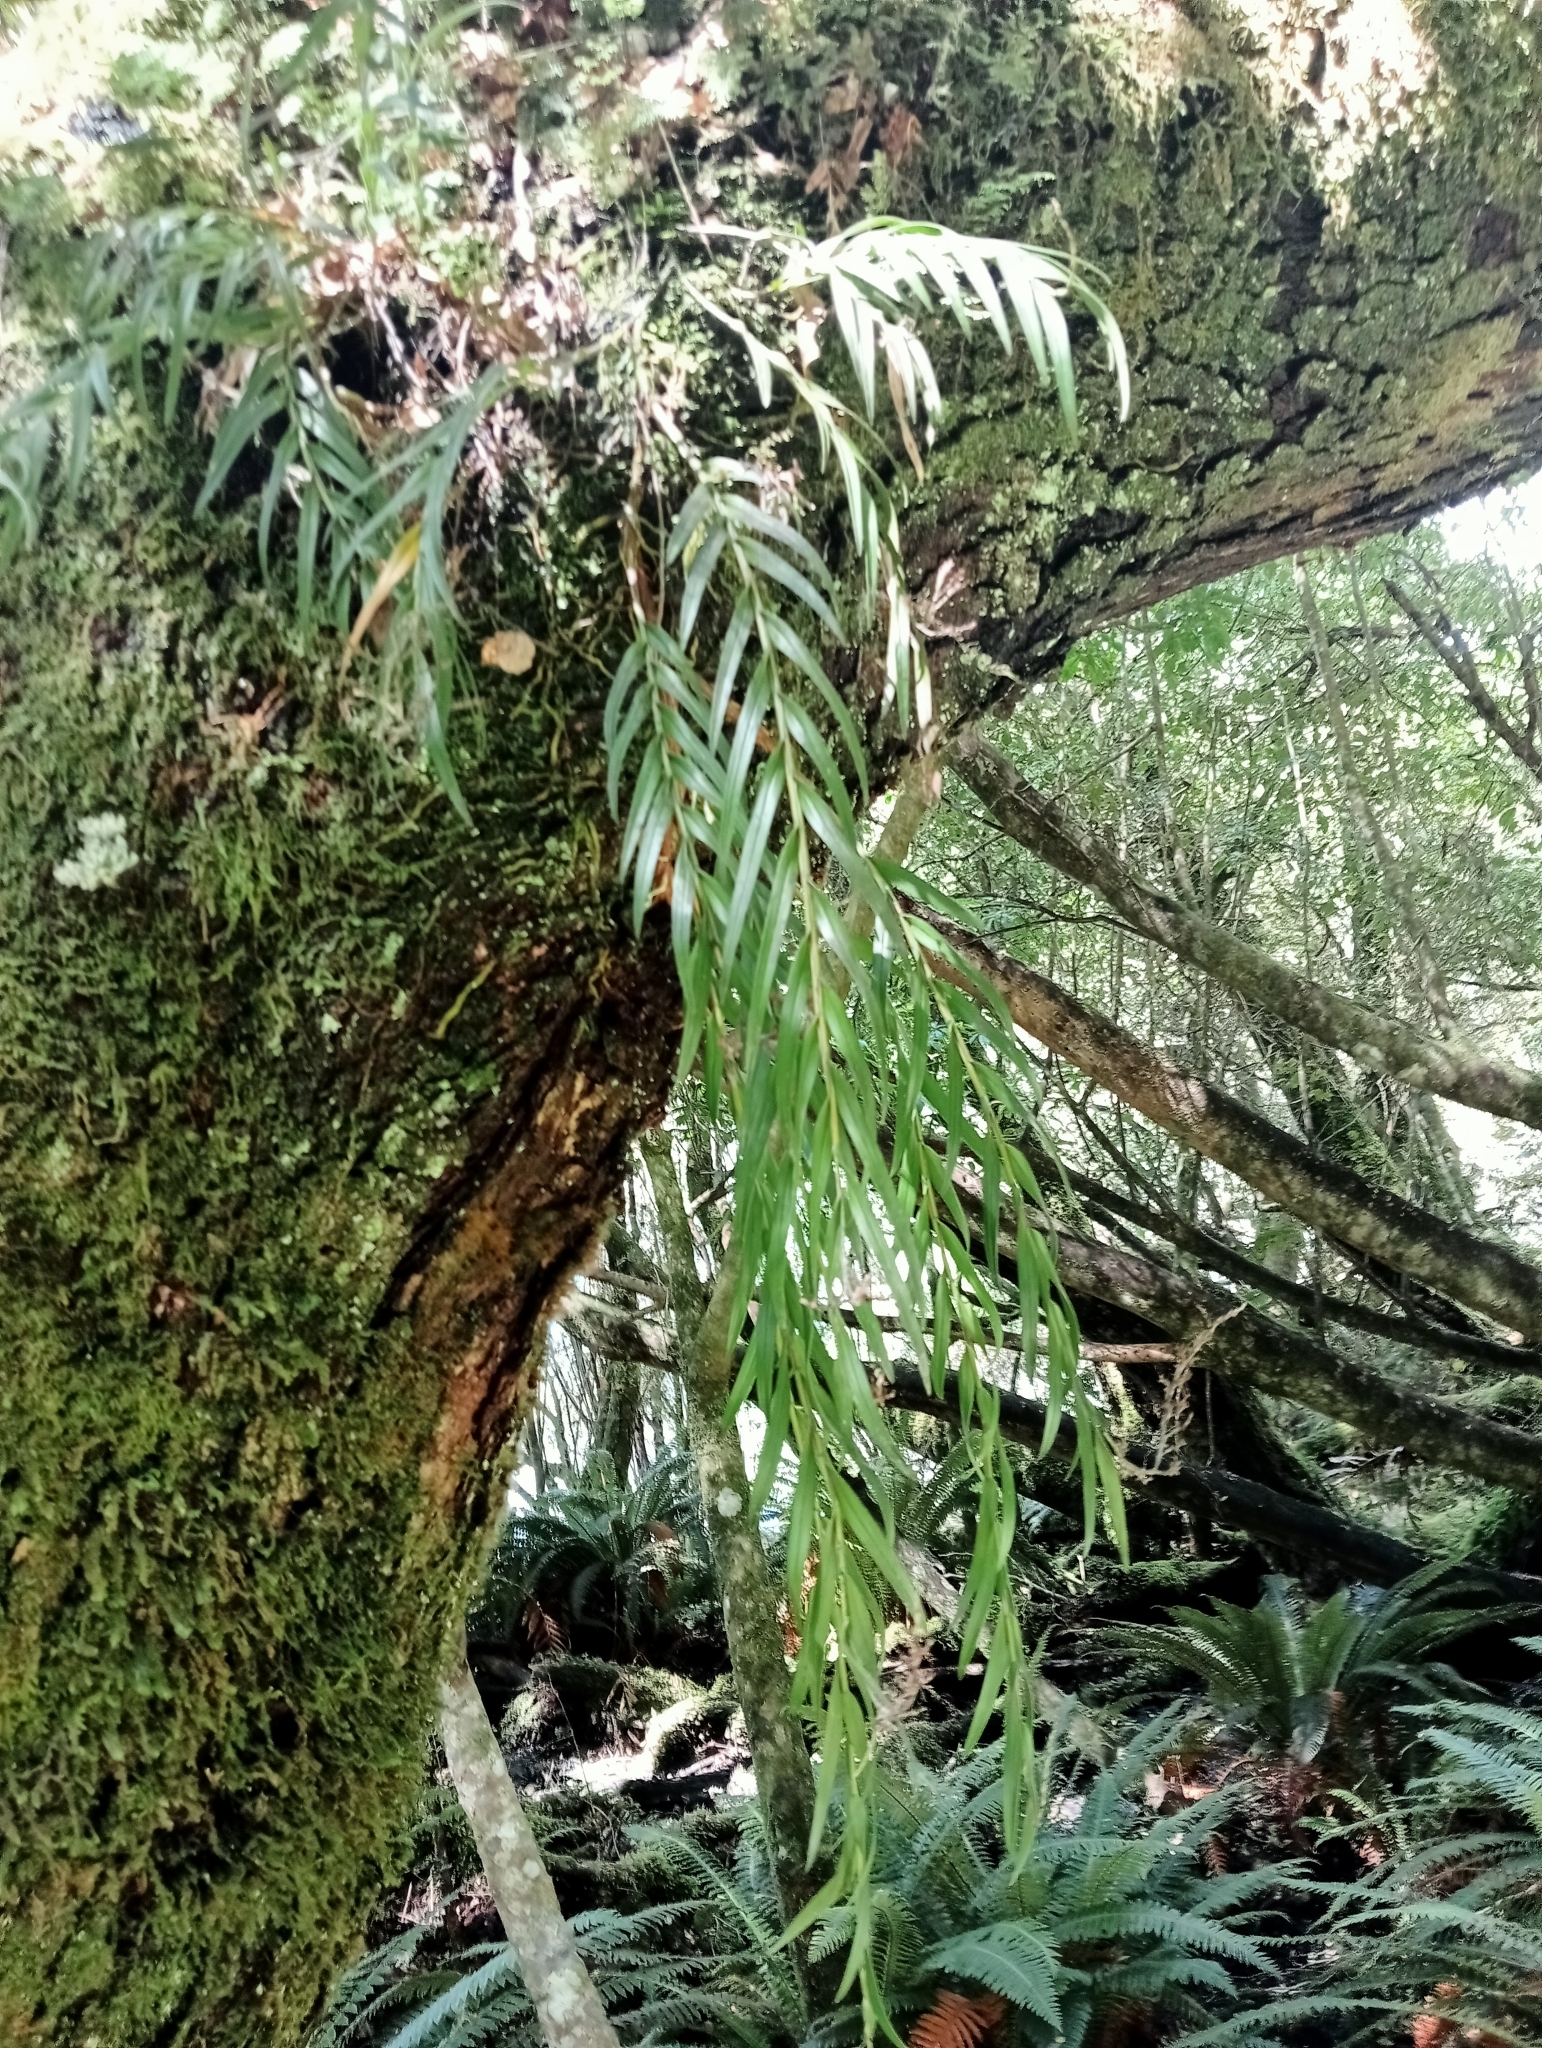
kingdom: Plantae
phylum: Tracheophyta
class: Liliopsida
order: Asparagales
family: Orchidaceae
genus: Earina
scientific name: Earina autumnalis
